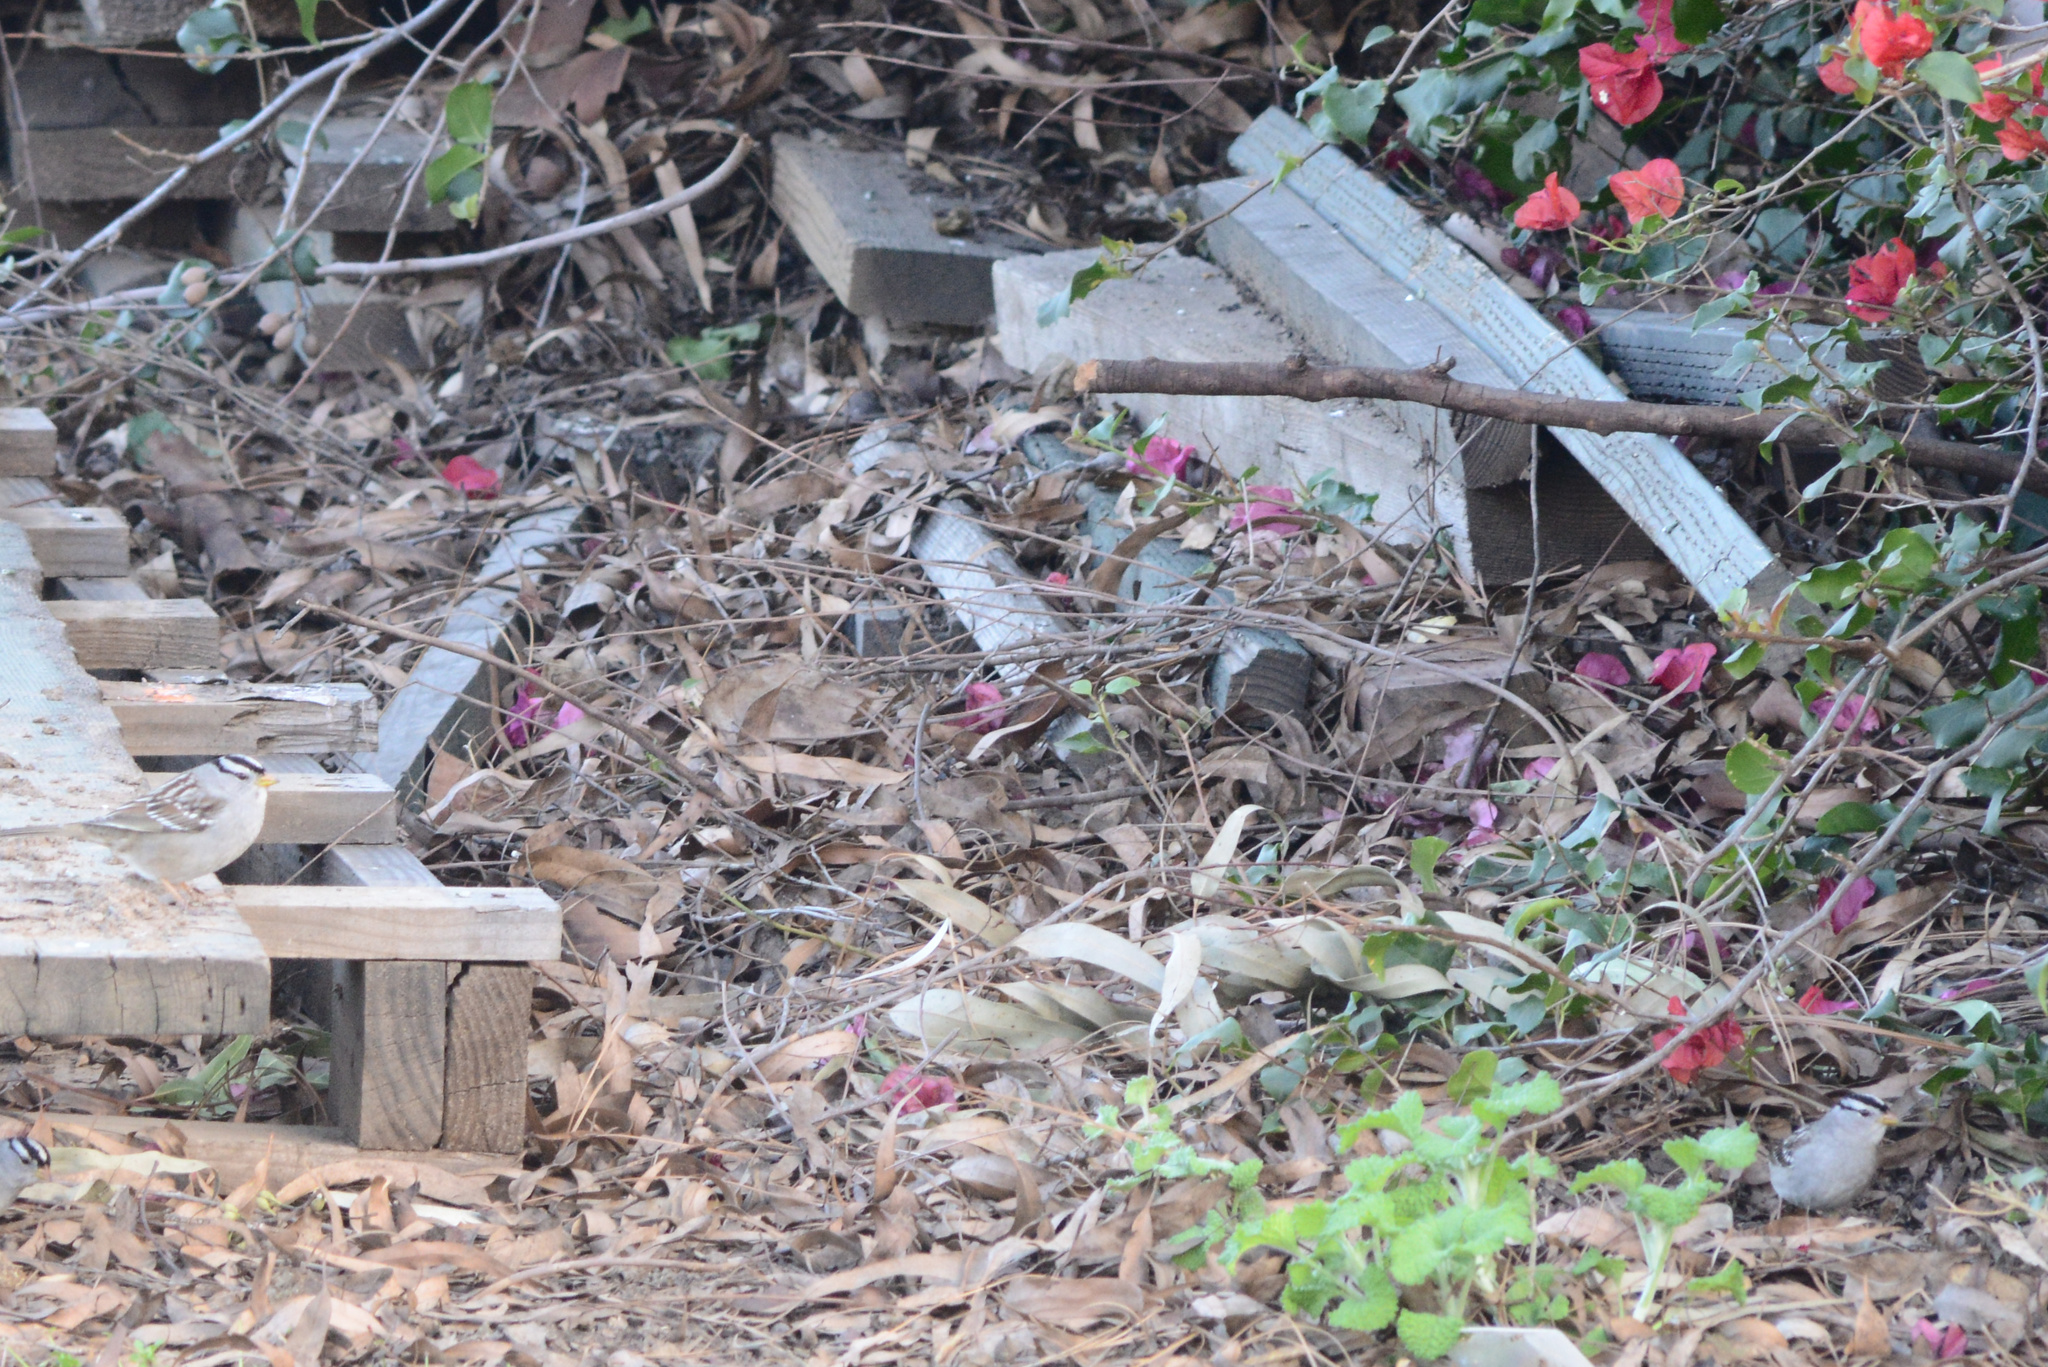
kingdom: Animalia
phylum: Chordata
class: Aves
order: Passeriformes
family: Passerellidae
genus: Zonotrichia
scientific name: Zonotrichia leucophrys
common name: White-crowned sparrow
